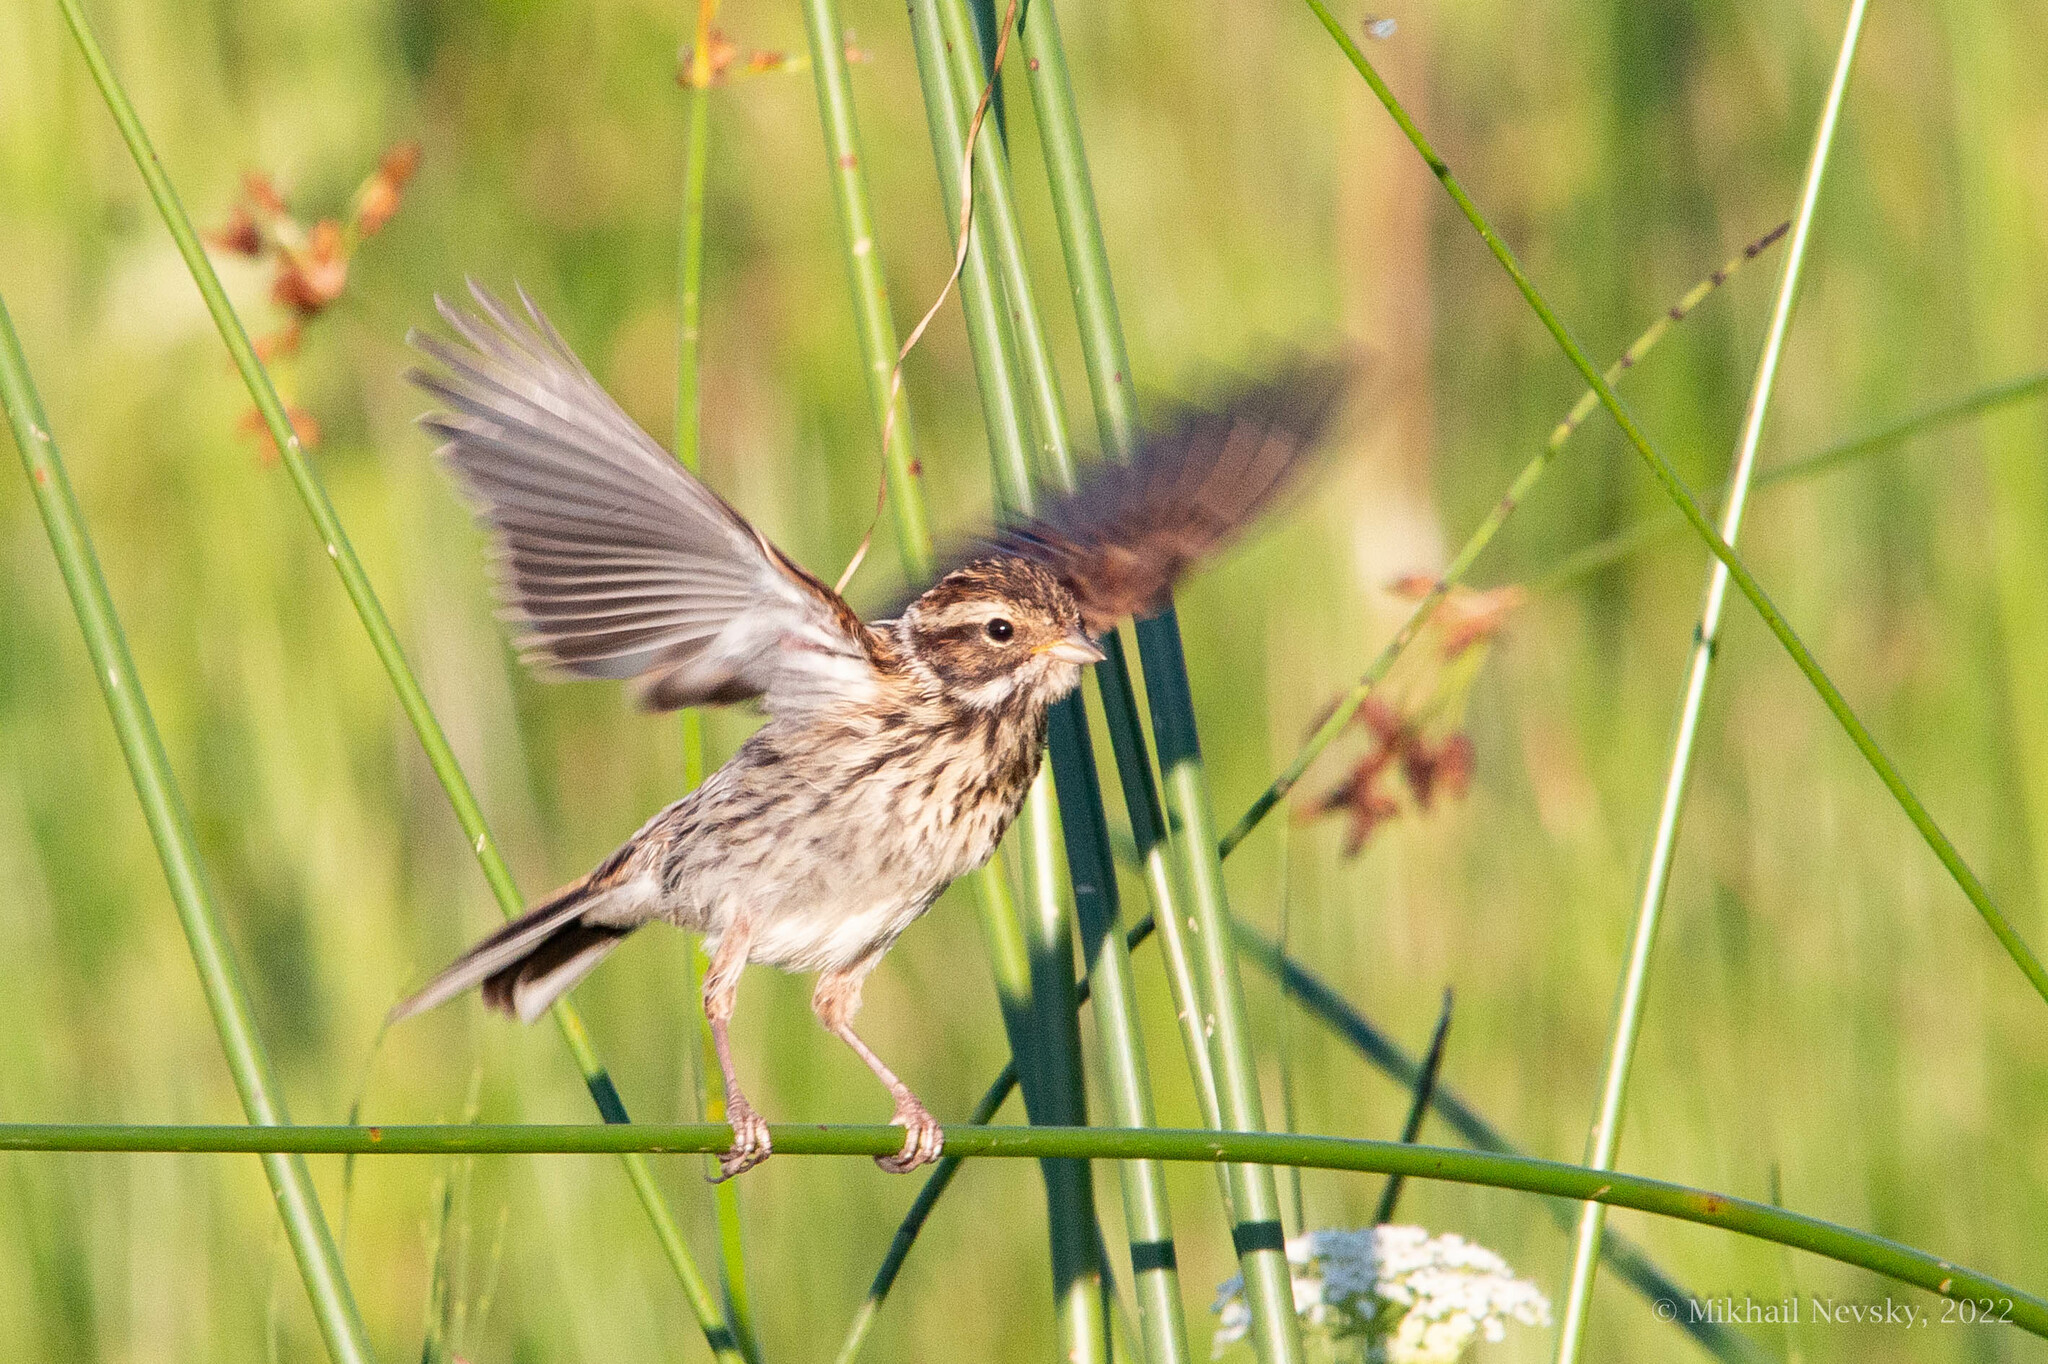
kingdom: Animalia
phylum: Chordata
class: Aves
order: Passeriformes
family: Emberizidae
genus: Emberiza
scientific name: Emberiza schoeniclus
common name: Reed bunting
